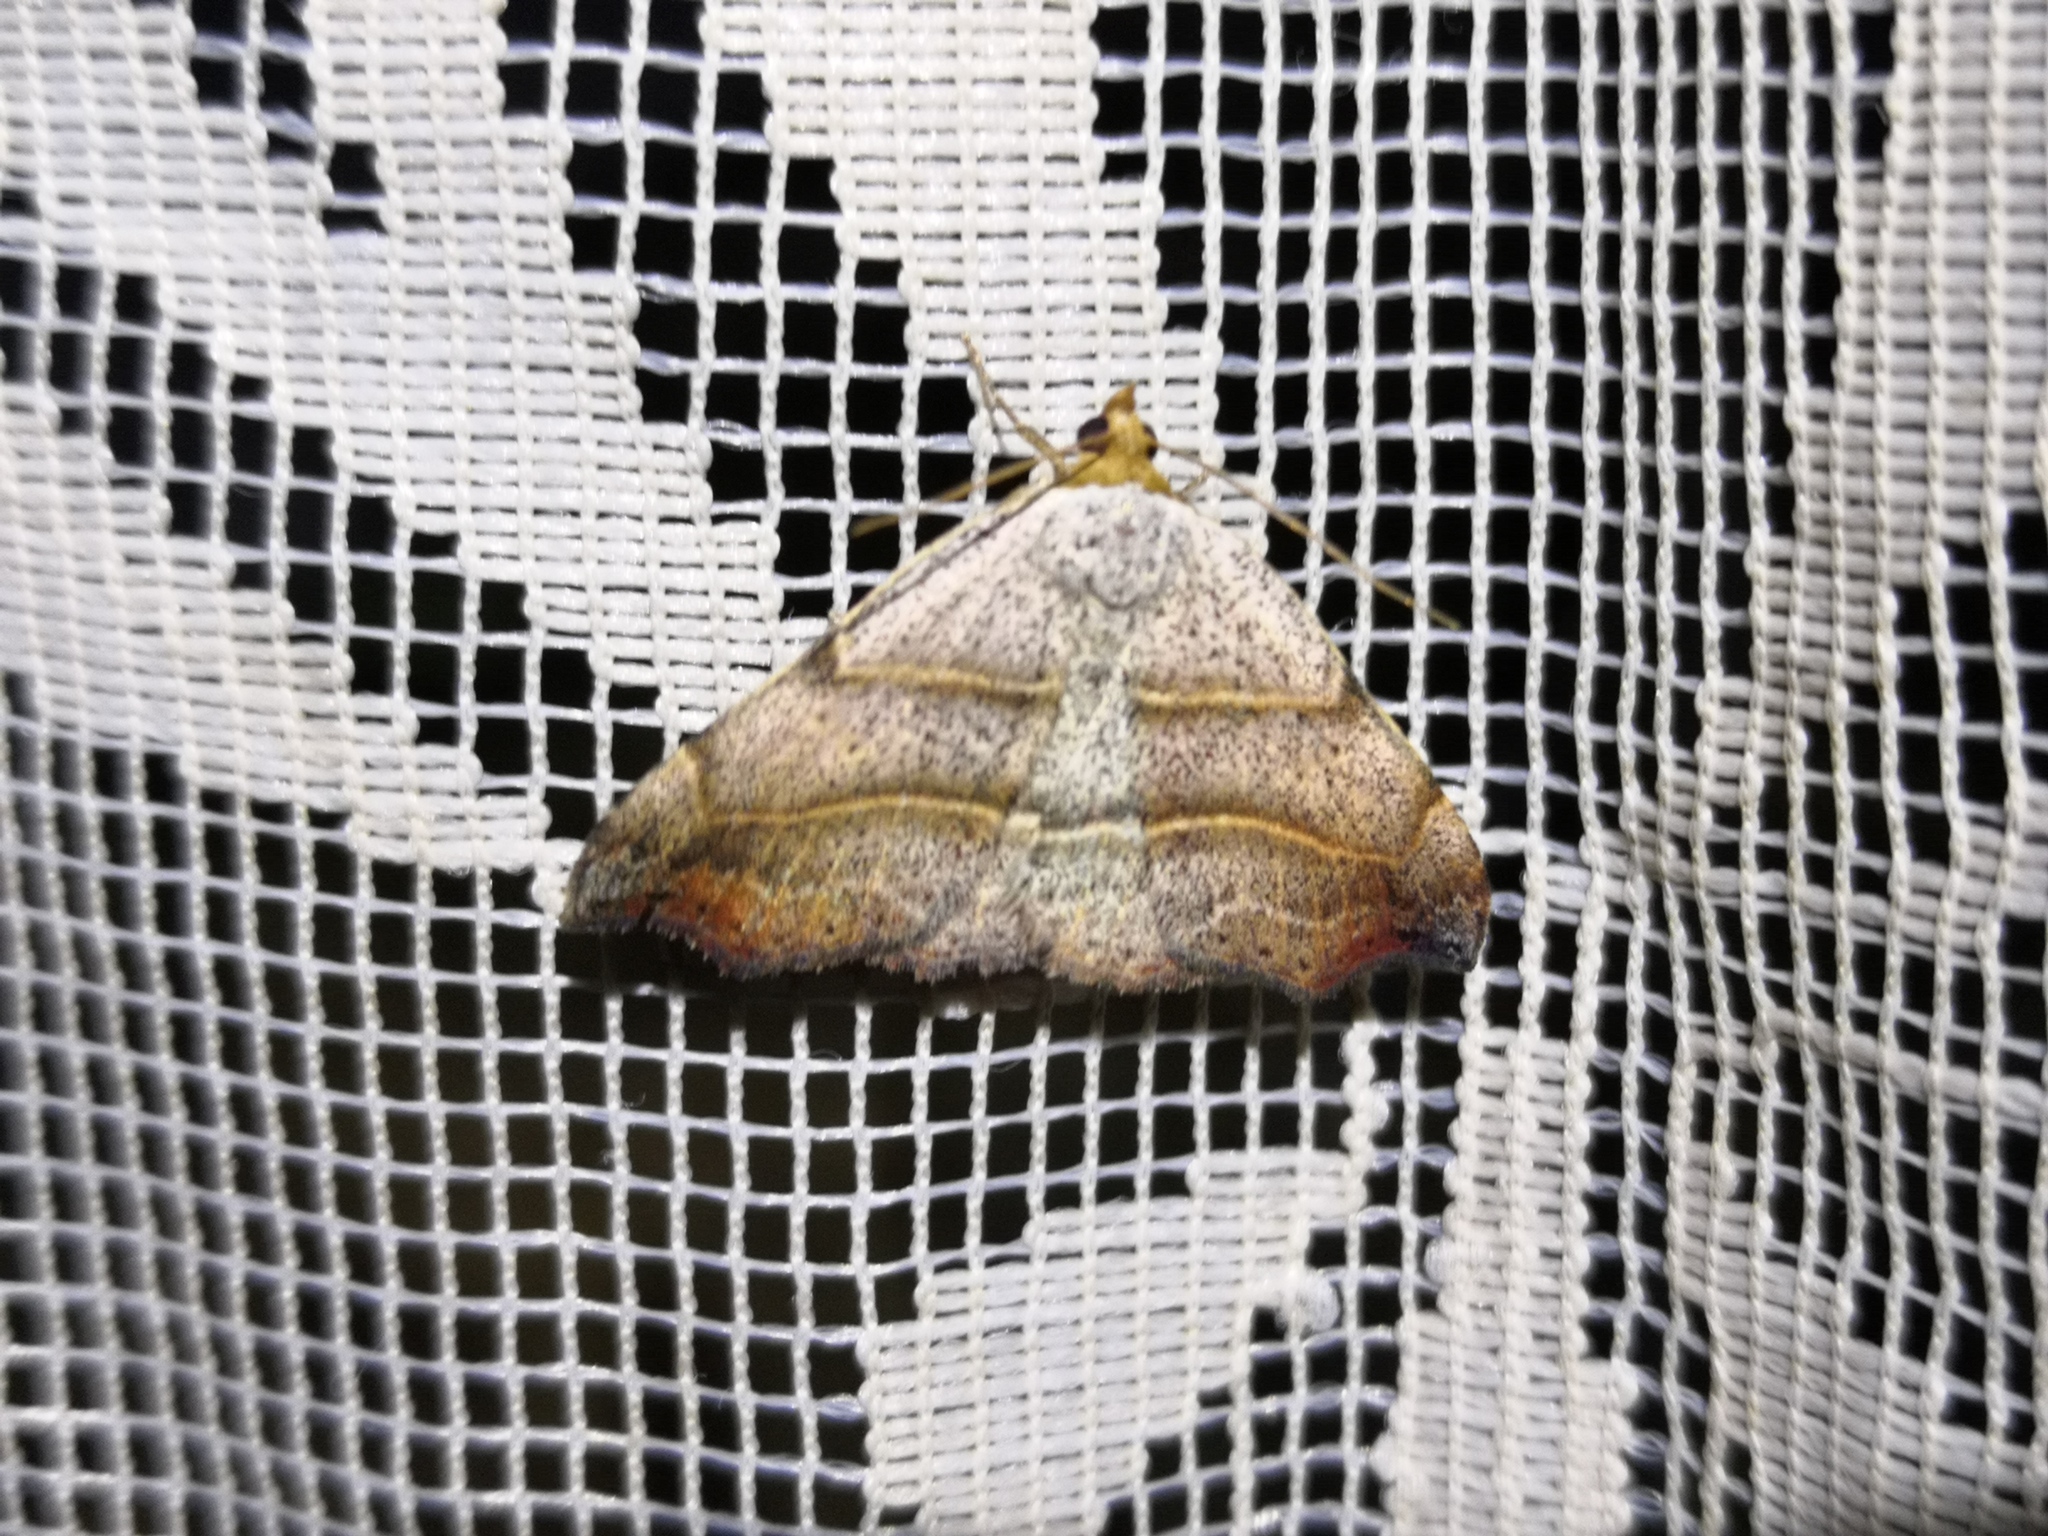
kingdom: Animalia
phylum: Arthropoda
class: Insecta
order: Lepidoptera
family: Erebidae
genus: Laspeyria
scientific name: Laspeyria flexula
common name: Beautiful hook-tip
